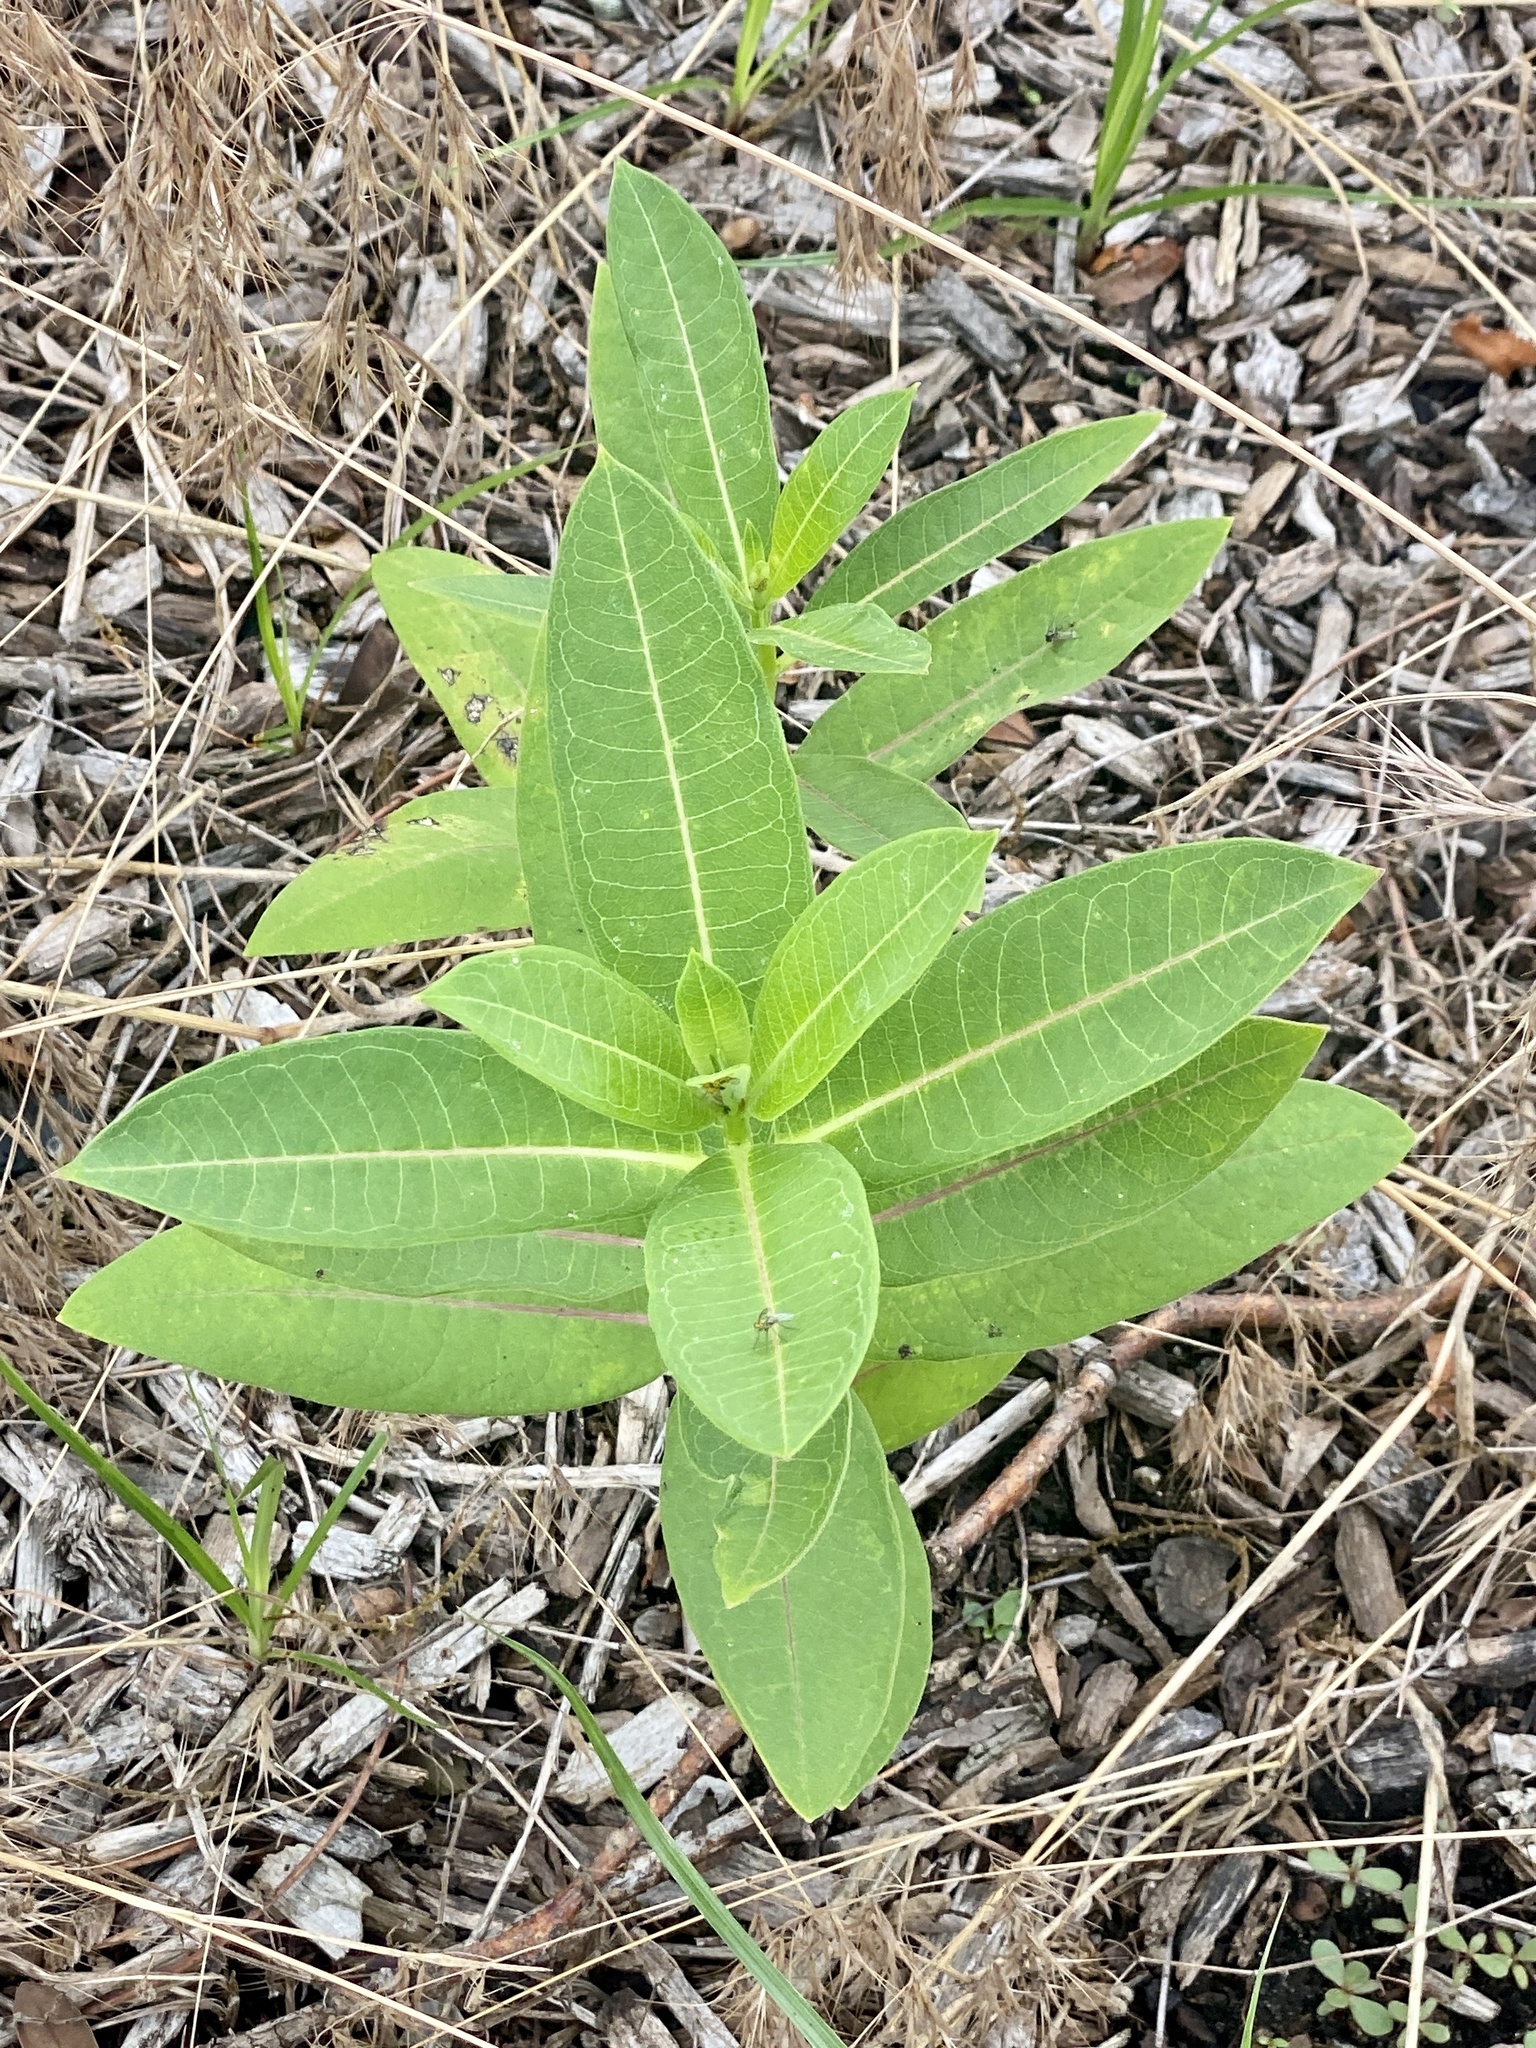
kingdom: Plantae
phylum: Tracheophyta
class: Magnoliopsida
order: Gentianales
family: Apocynaceae
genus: Asclepias
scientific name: Asclepias syriaca
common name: Common milkweed
